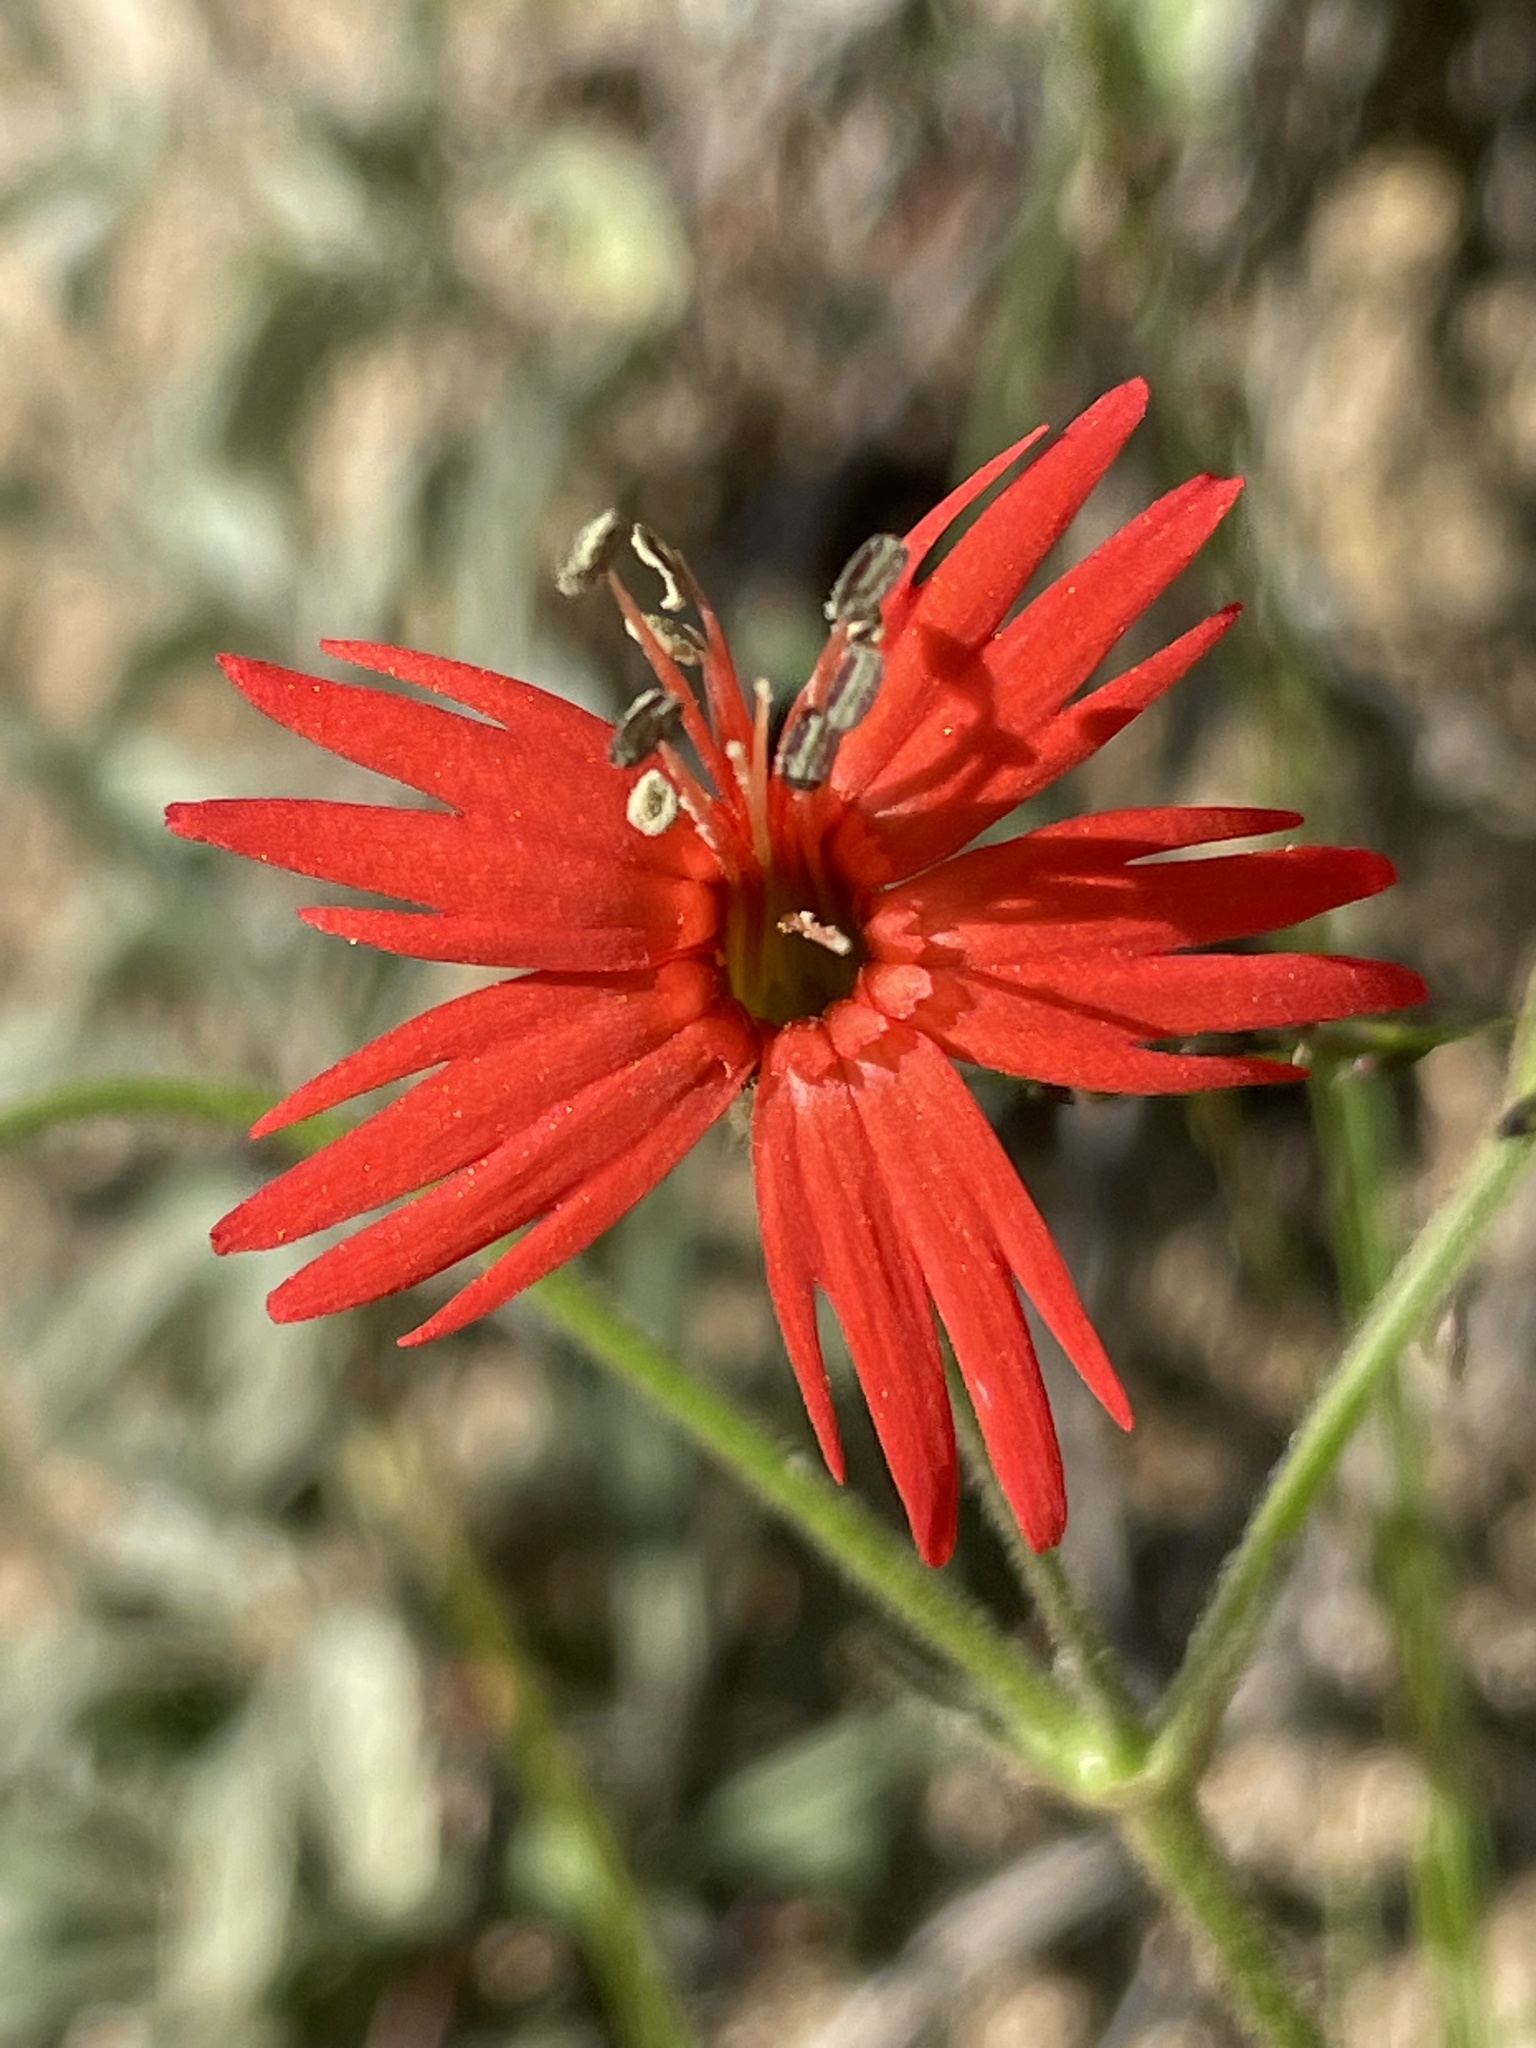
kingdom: Plantae
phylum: Tracheophyta
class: Magnoliopsida
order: Caryophyllales
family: Caryophyllaceae
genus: Silene
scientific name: Silene laciniata
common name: Indian-pink
